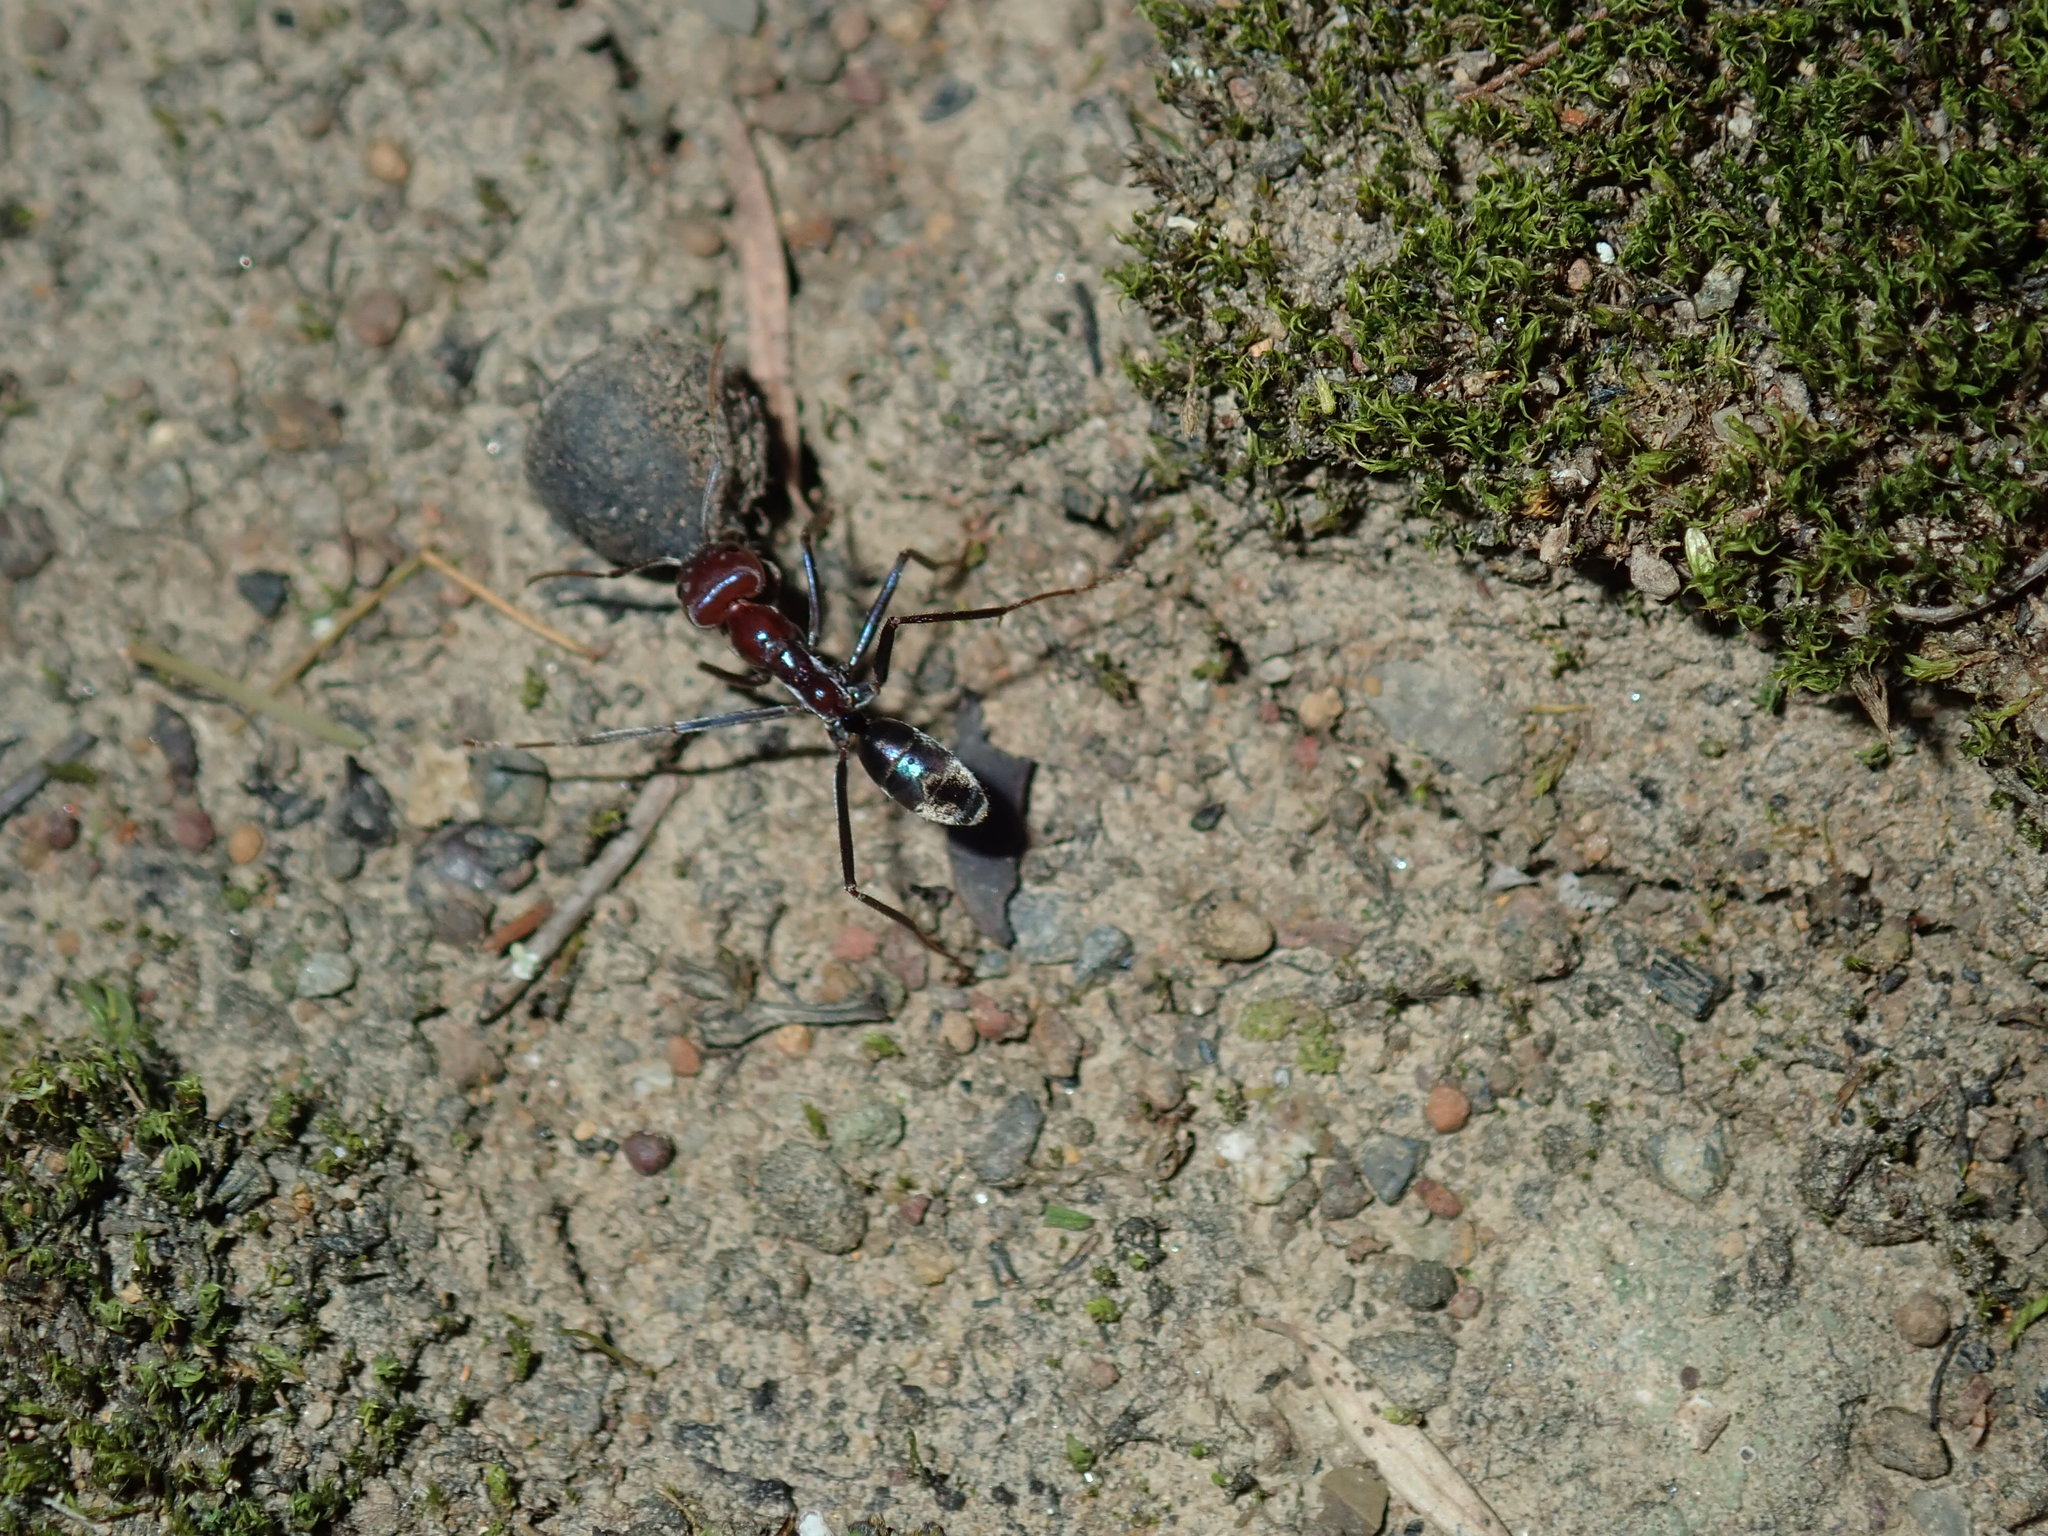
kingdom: Animalia
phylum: Arthropoda
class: Insecta
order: Hymenoptera
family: Formicidae
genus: Iridomyrmex
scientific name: Iridomyrmex purpureus
